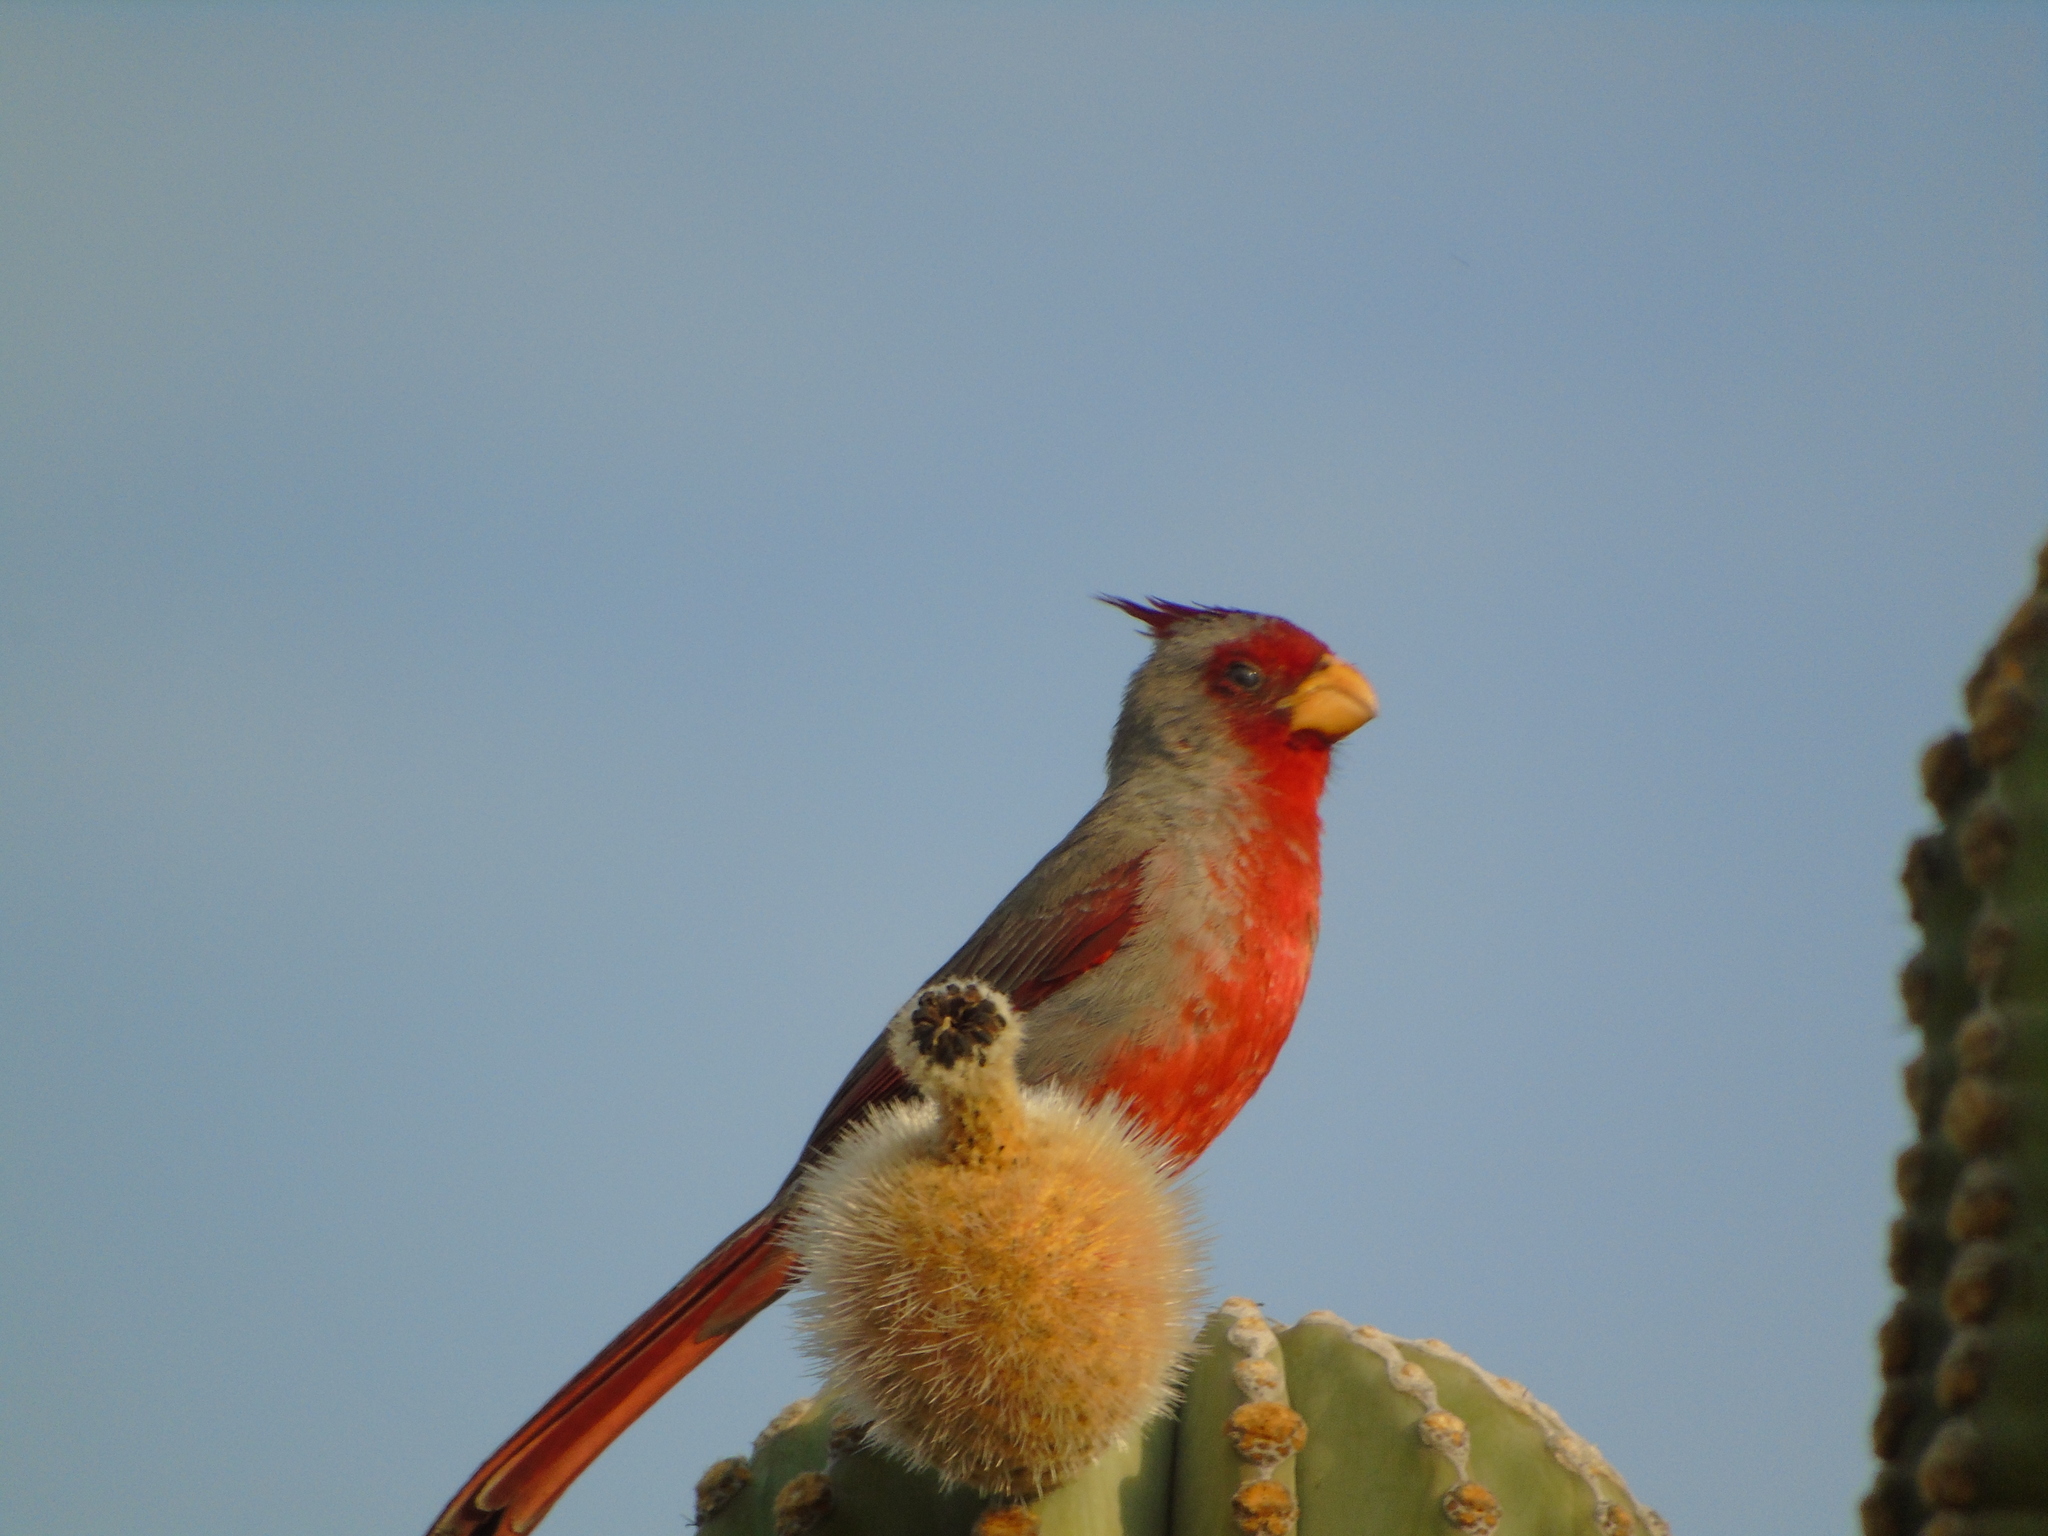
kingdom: Animalia
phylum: Chordata
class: Aves
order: Passeriformes
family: Cardinalidae
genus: Cardinalis
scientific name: Cardinalis sinuatus
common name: Pyrrhuloxia
